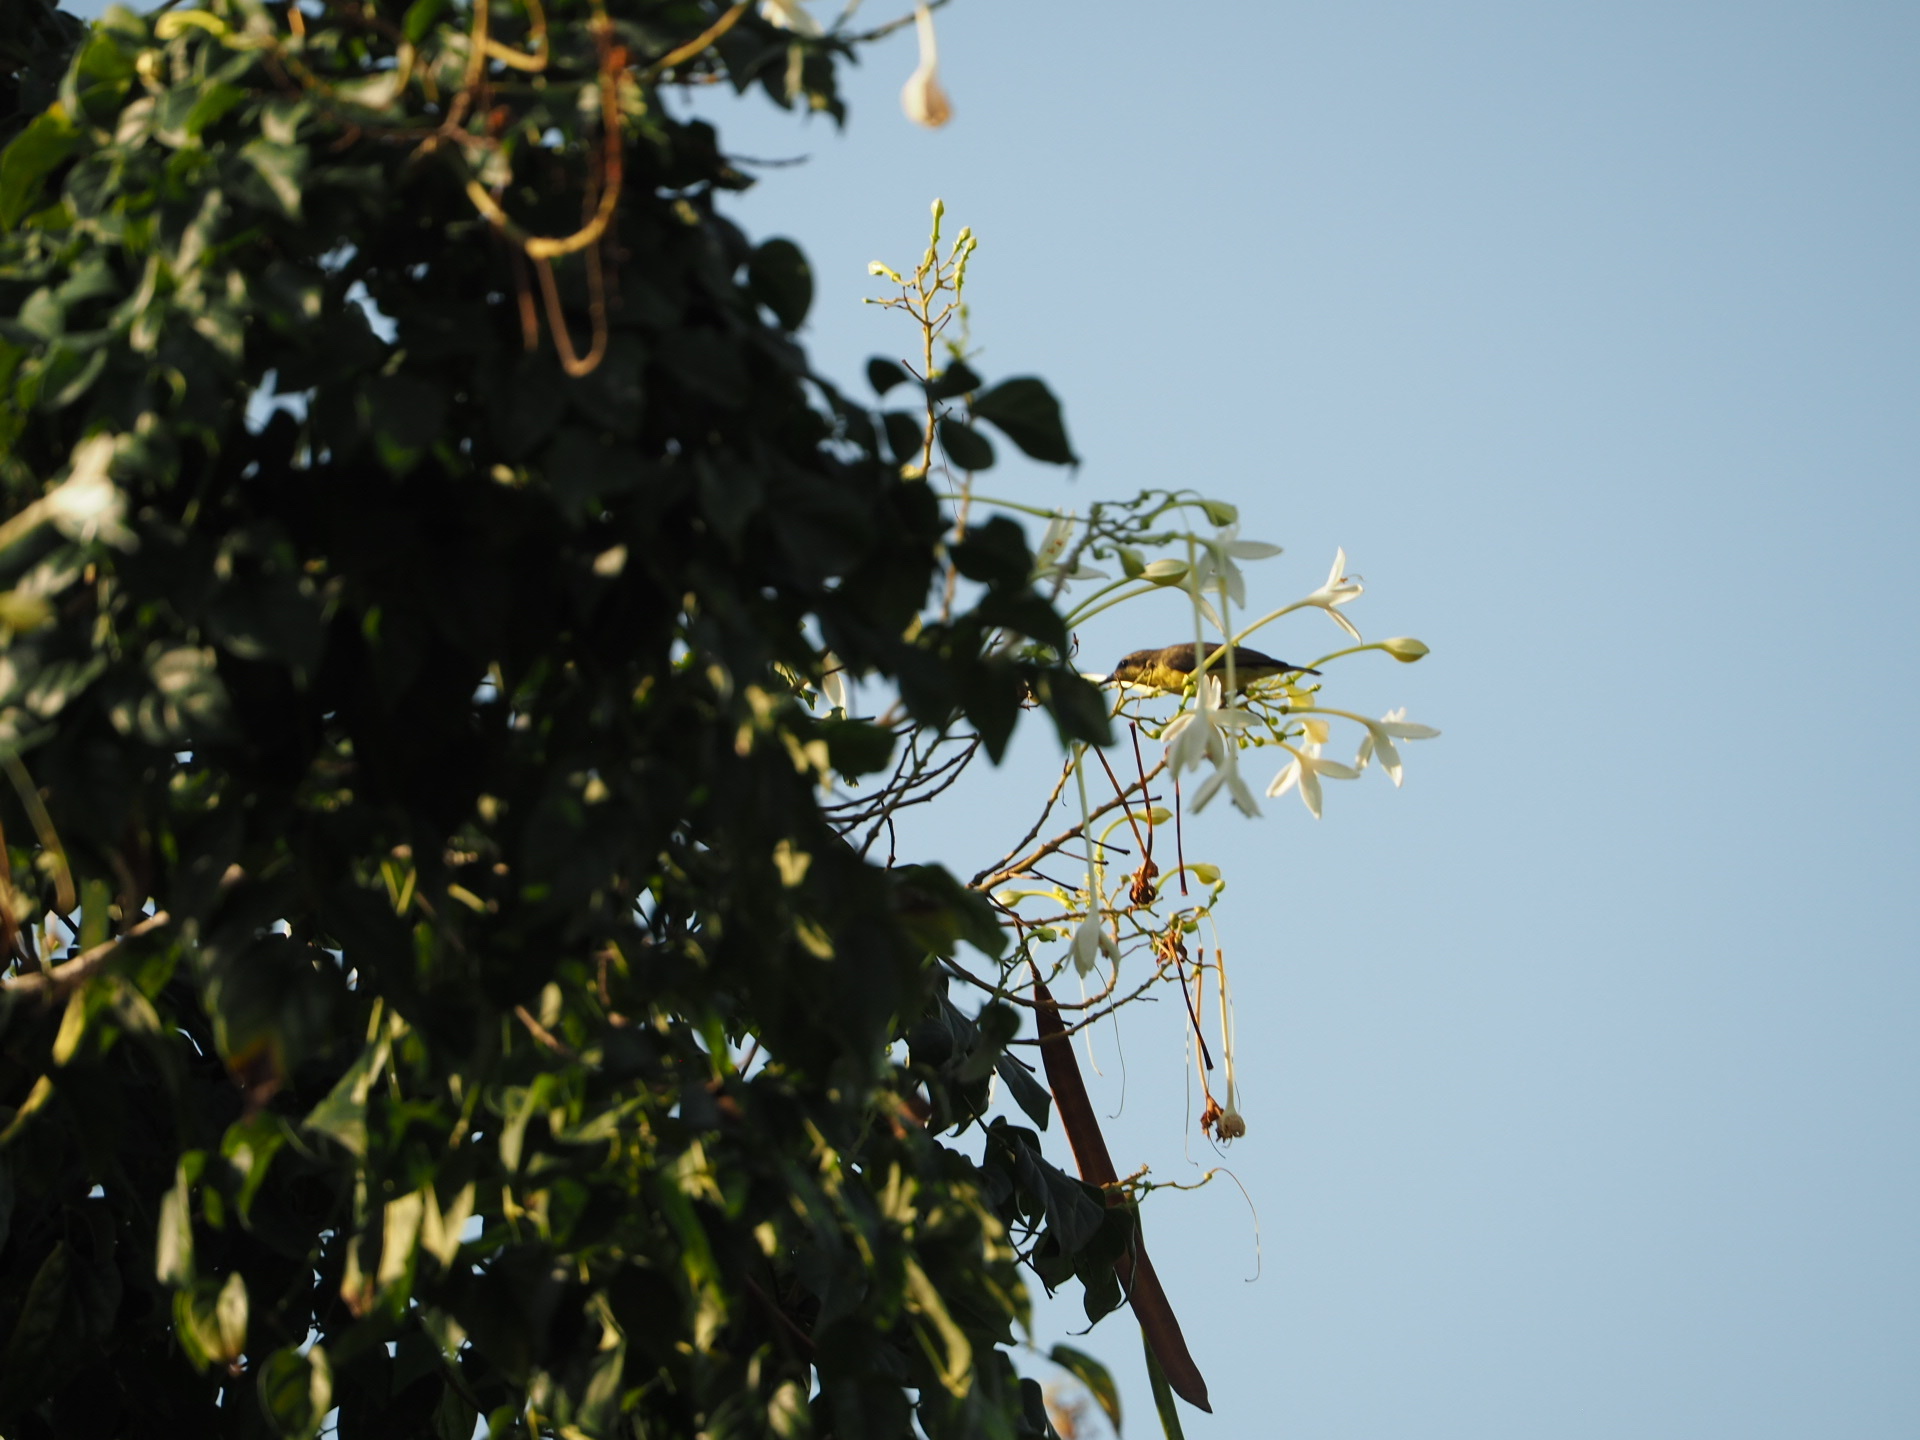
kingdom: Animalia
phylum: Chordata
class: Aves
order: Passeriformes
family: Nectariniidae
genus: Cinnyris
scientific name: Cinnyris
